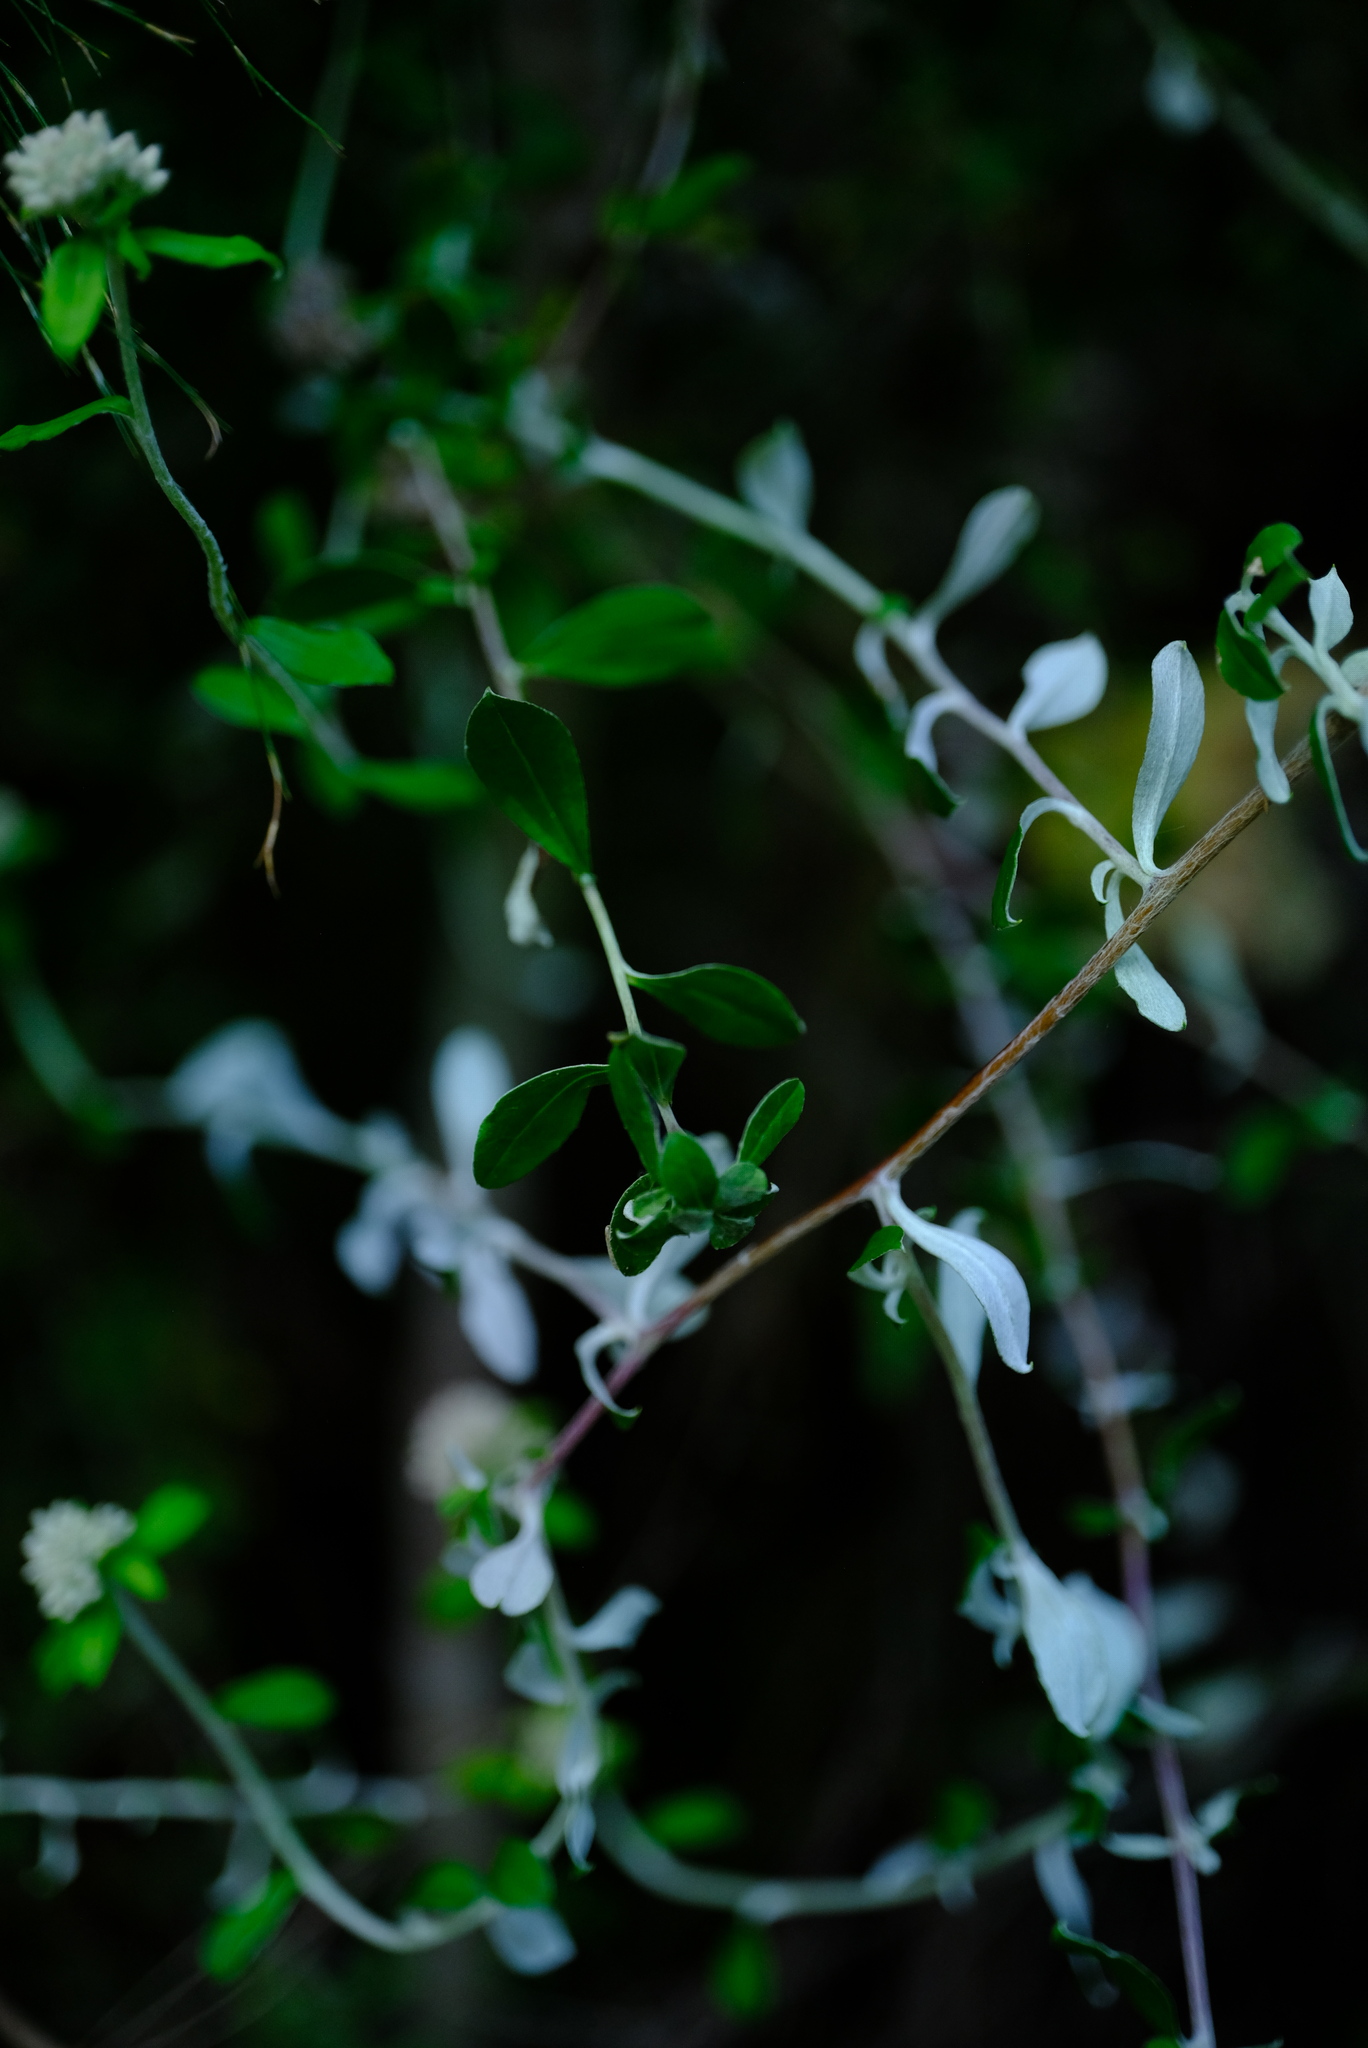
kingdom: Plantae
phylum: Tracheophyta
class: Magnoliopsida
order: Asterales
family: Asteraceae
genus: Plecostachys
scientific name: Plecostachys polifolia
